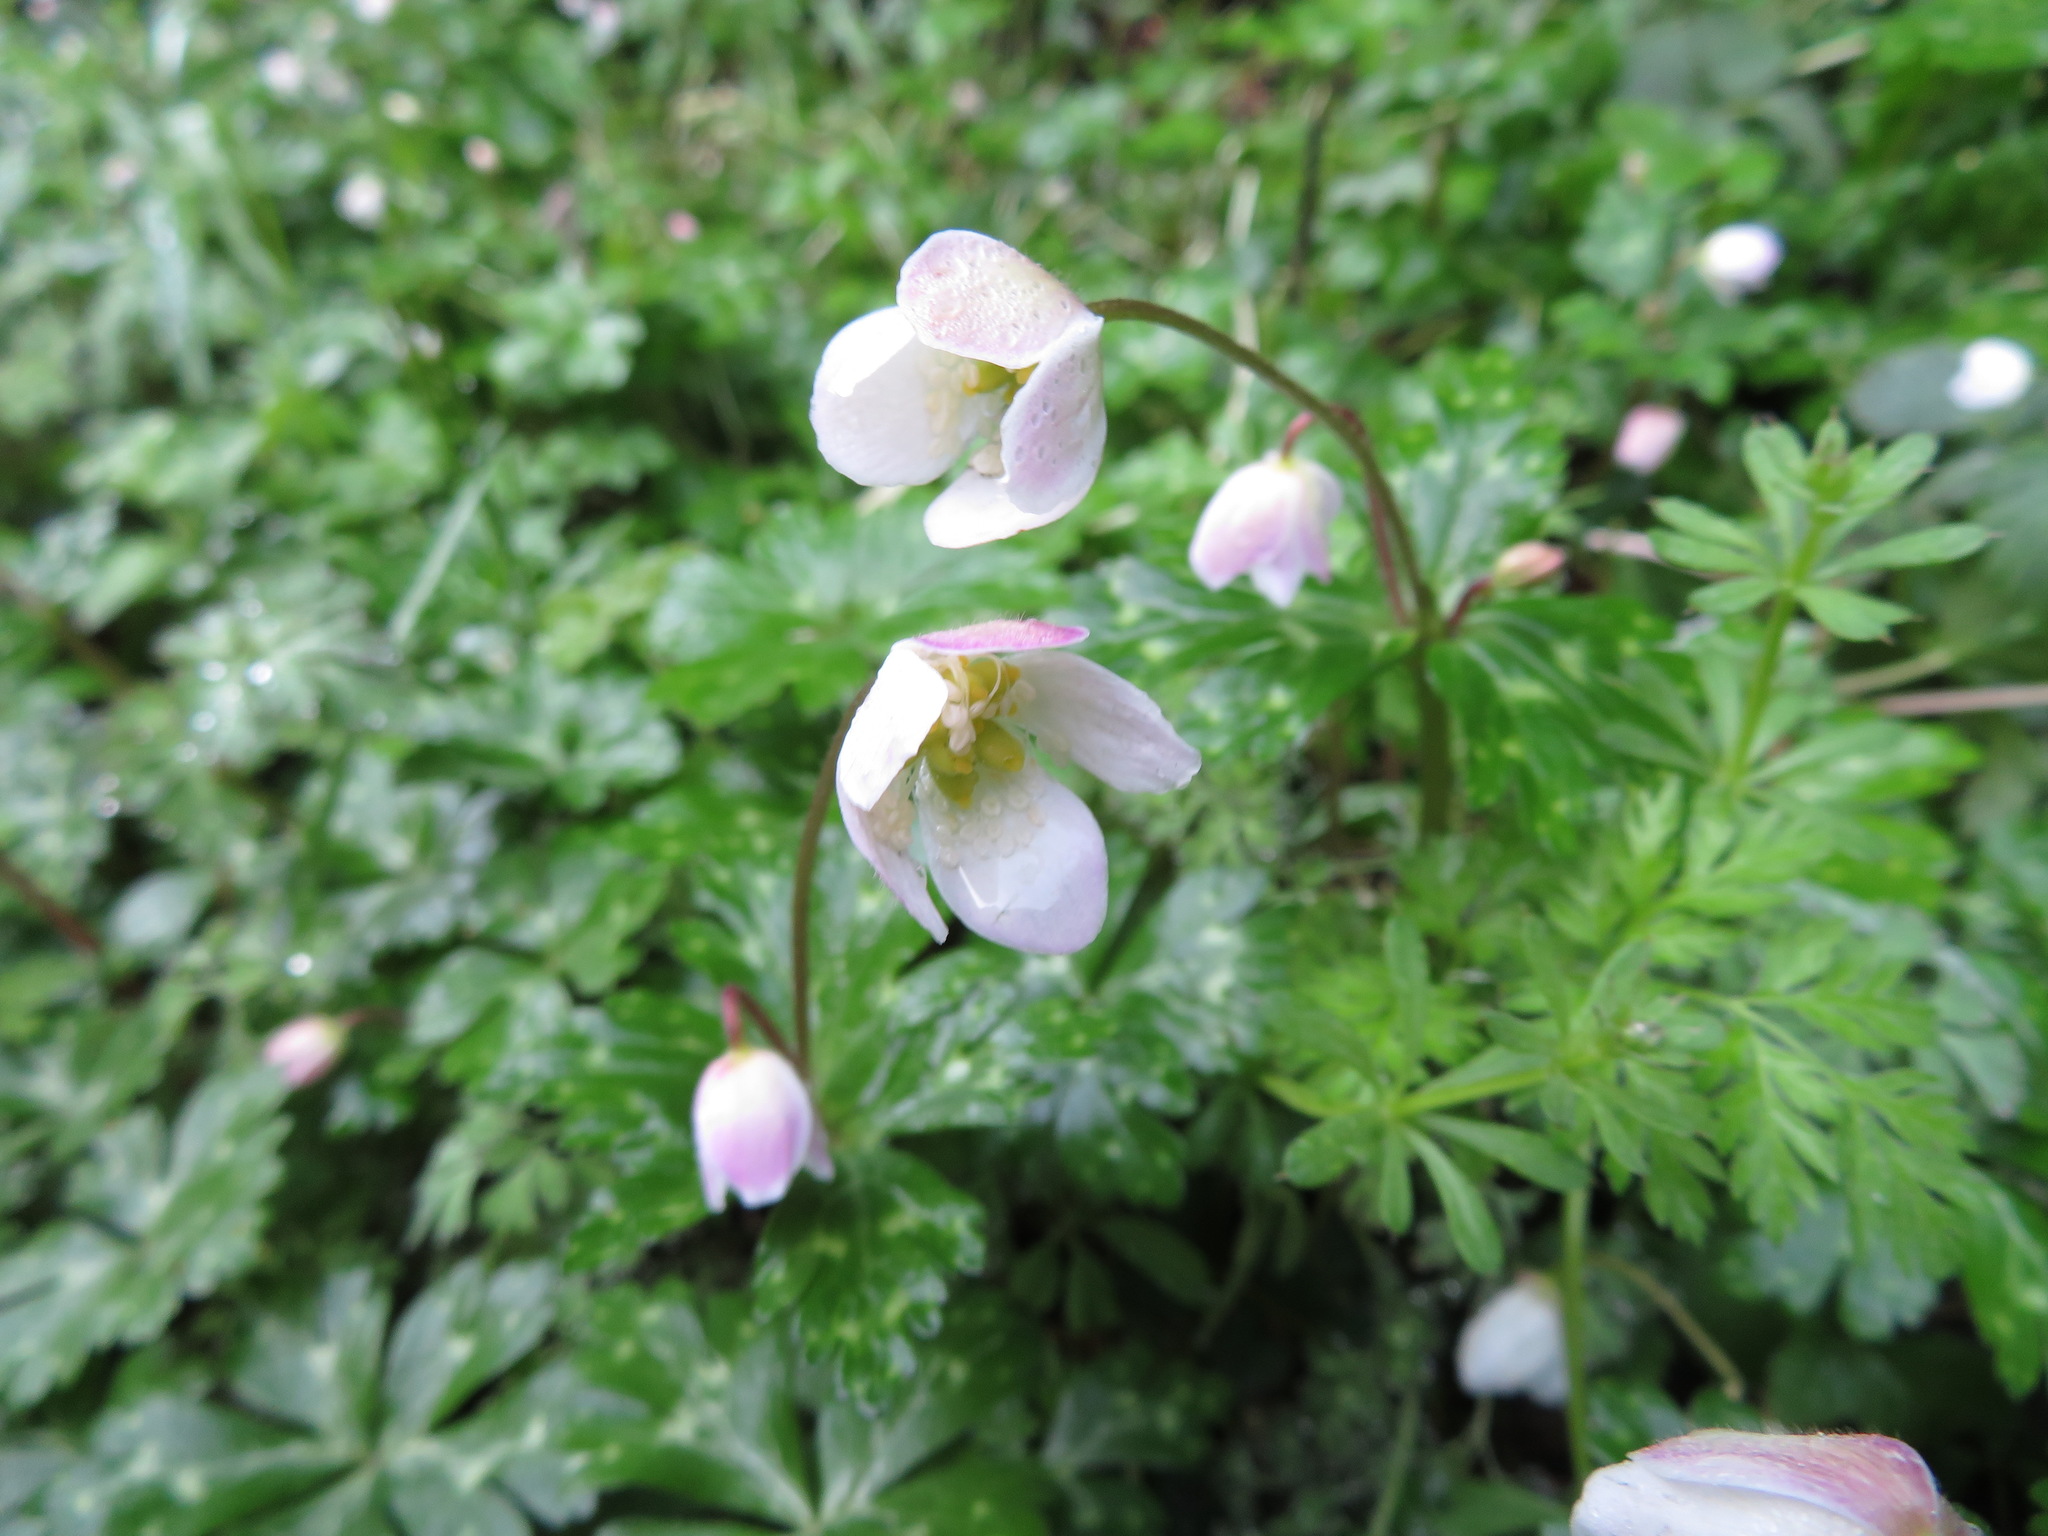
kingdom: Plantae
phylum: Tracheophyta
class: Magnoliopsida
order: Ranunculales
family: Ranunculaceae
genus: Anemonastrum
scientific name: Anemonastrum flaccidum
